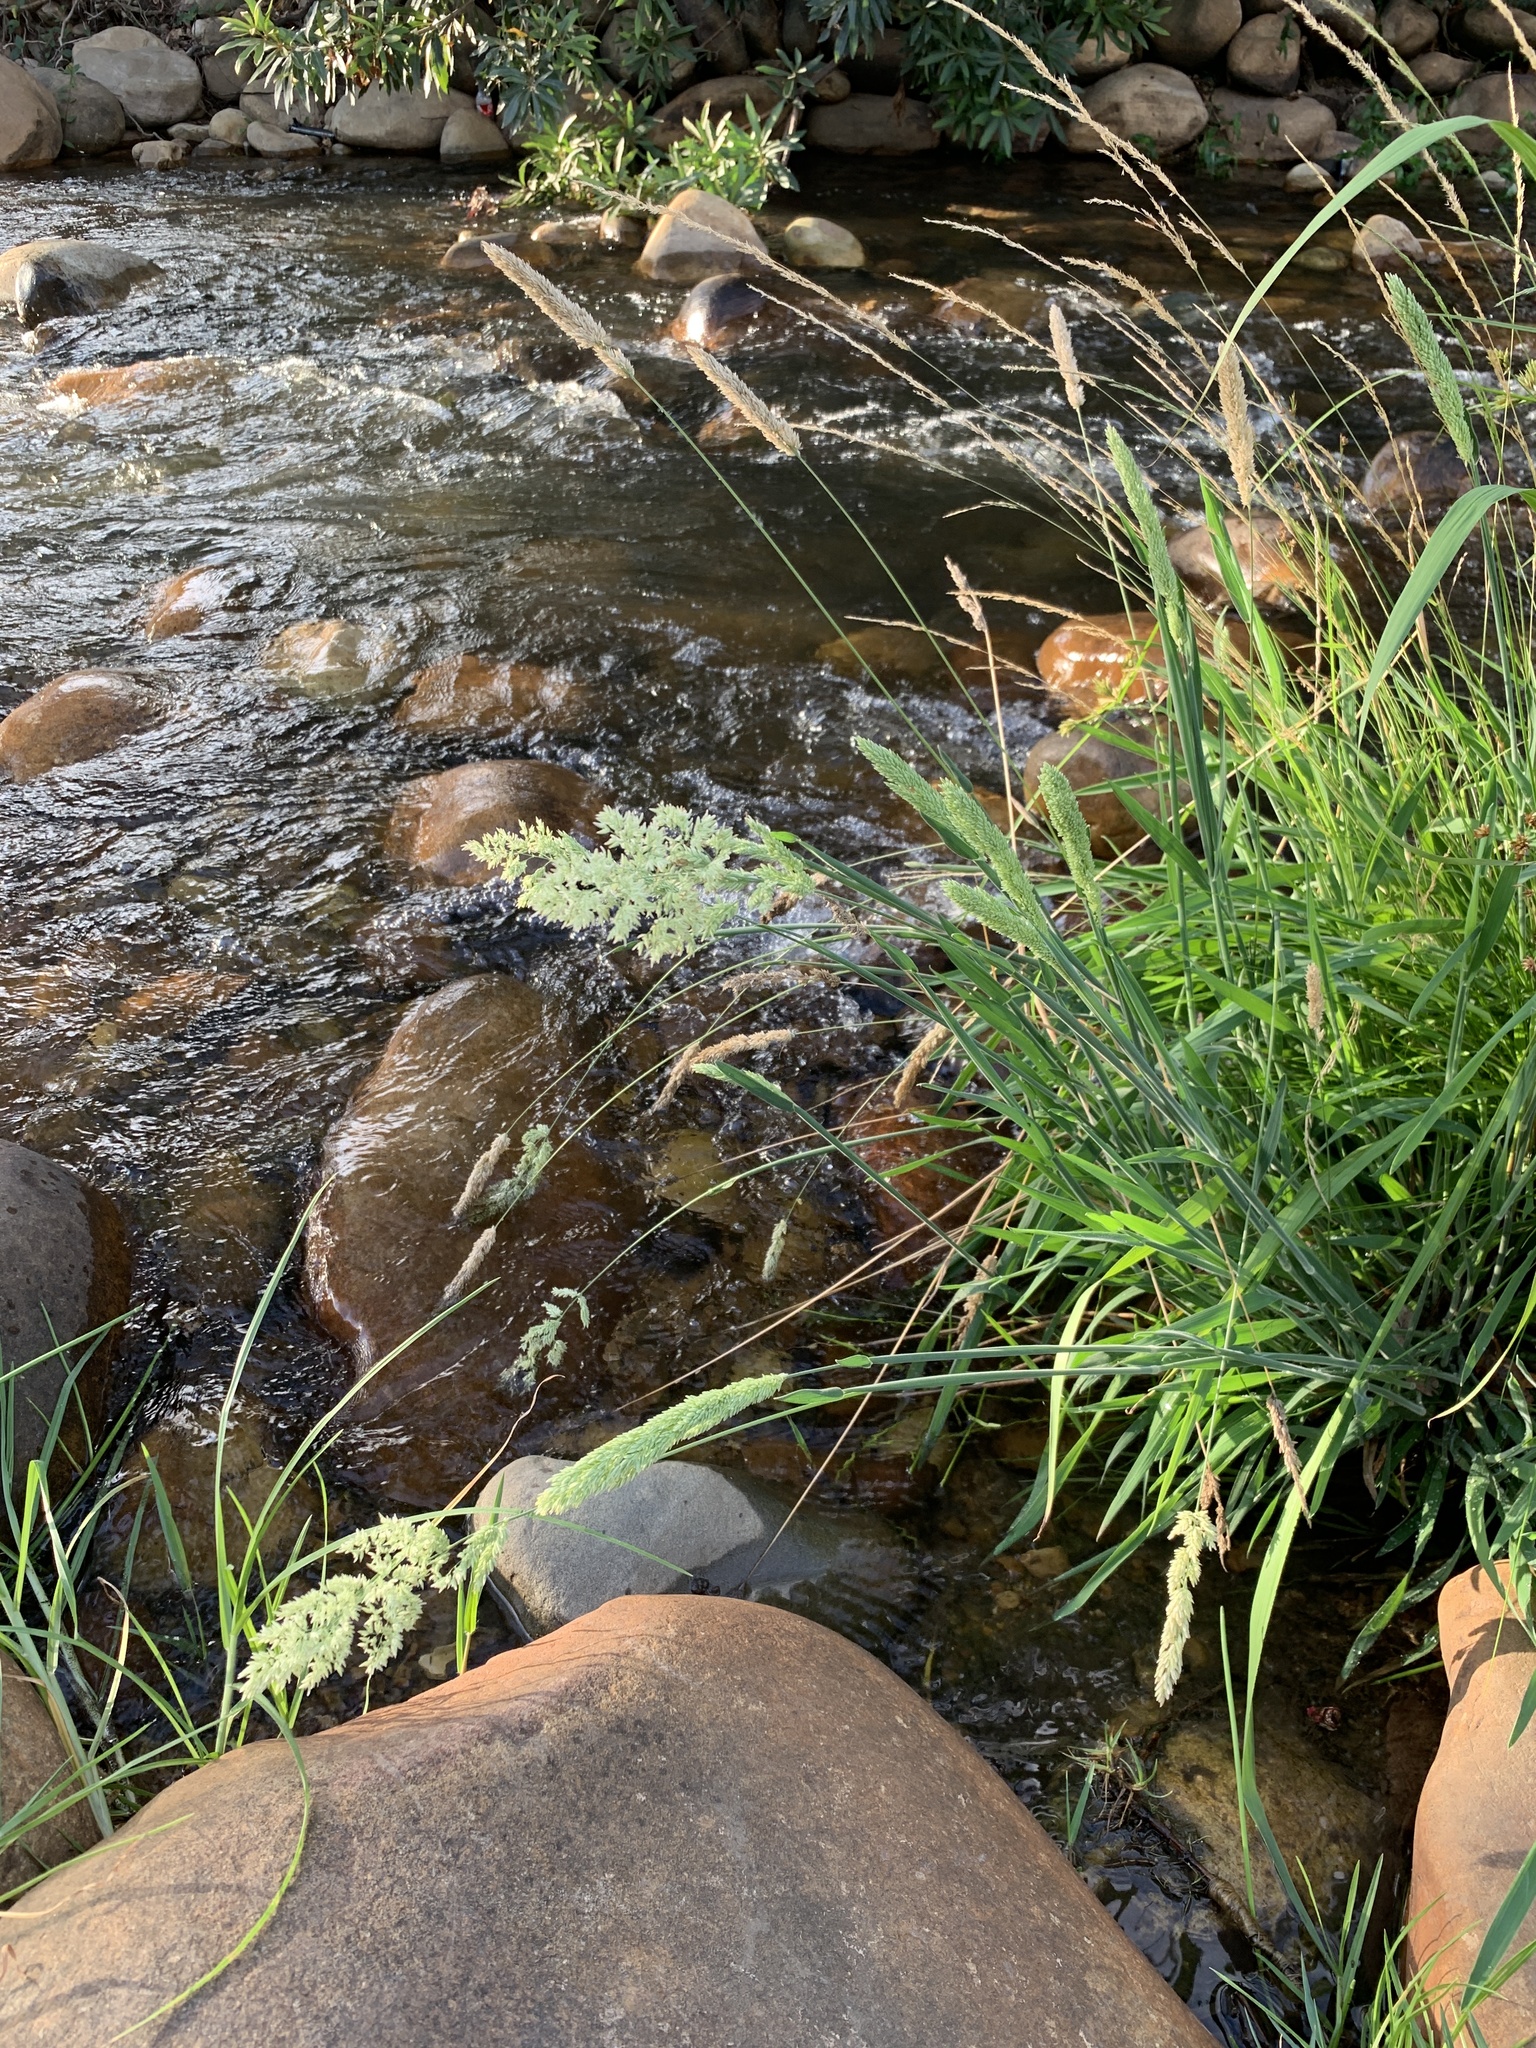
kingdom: Plantae
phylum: Tracheophyta
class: Liliopsida
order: Poales
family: Poaceae
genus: Holcus
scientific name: Holcus lanatus
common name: Yorkshire-fog
